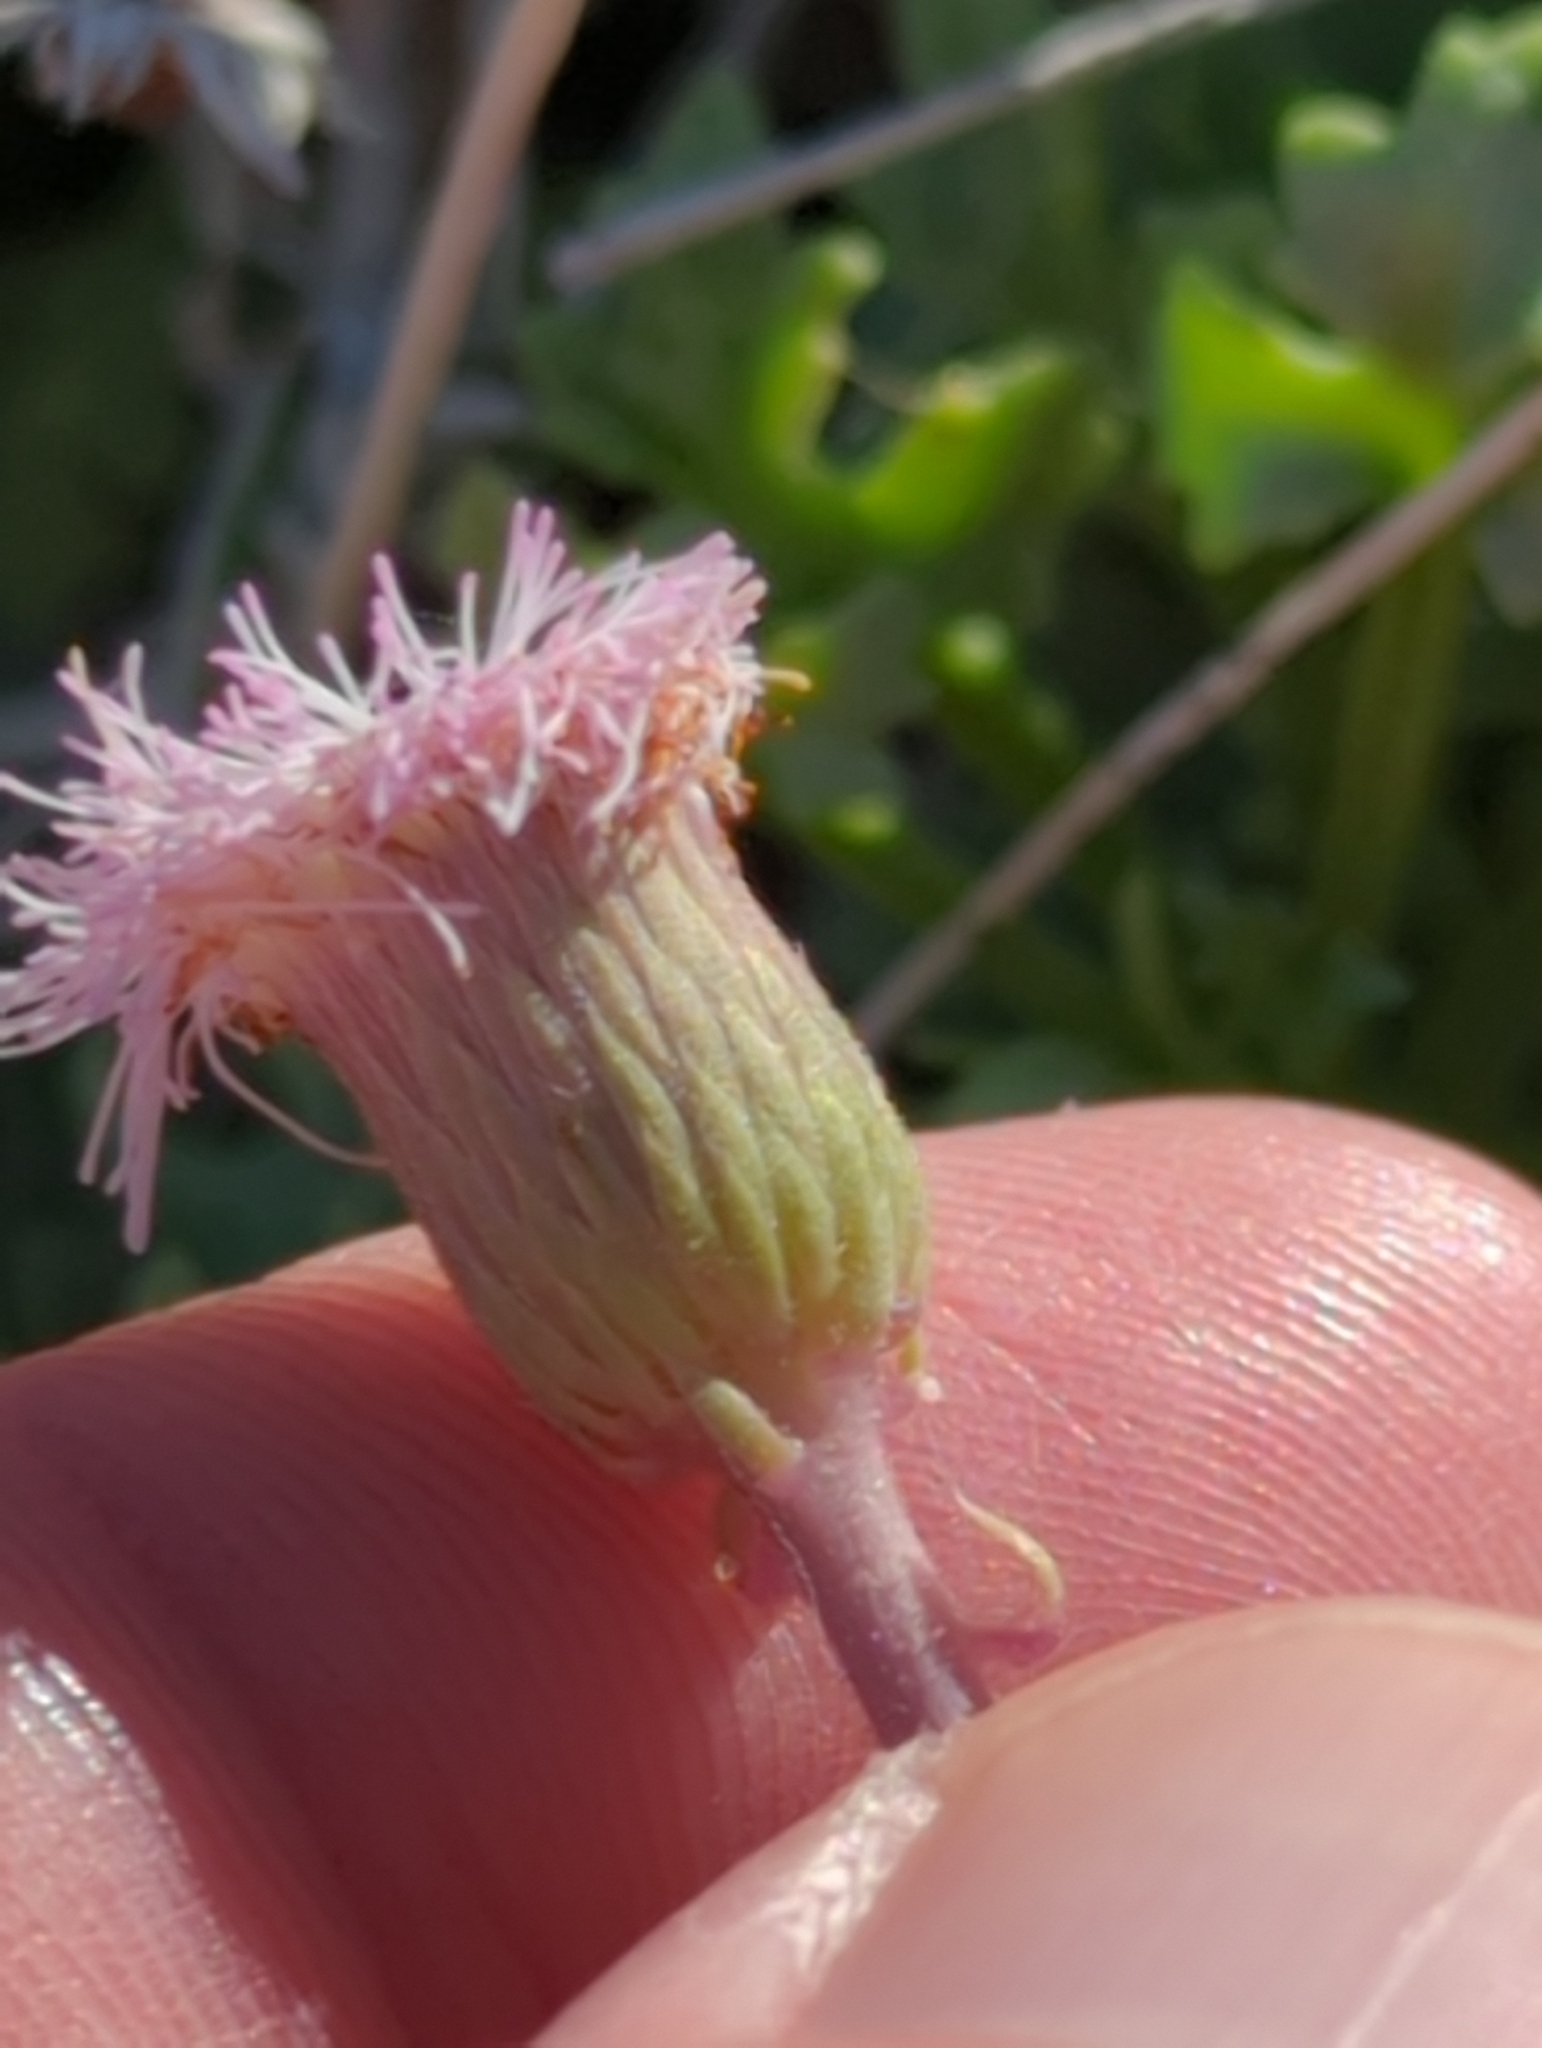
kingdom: Plantae
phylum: Tracheophyta
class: Magnoliopsida
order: Asterales
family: Asteraceae
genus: Hofmeisteria
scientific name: Hofmeisteria fasciculata
